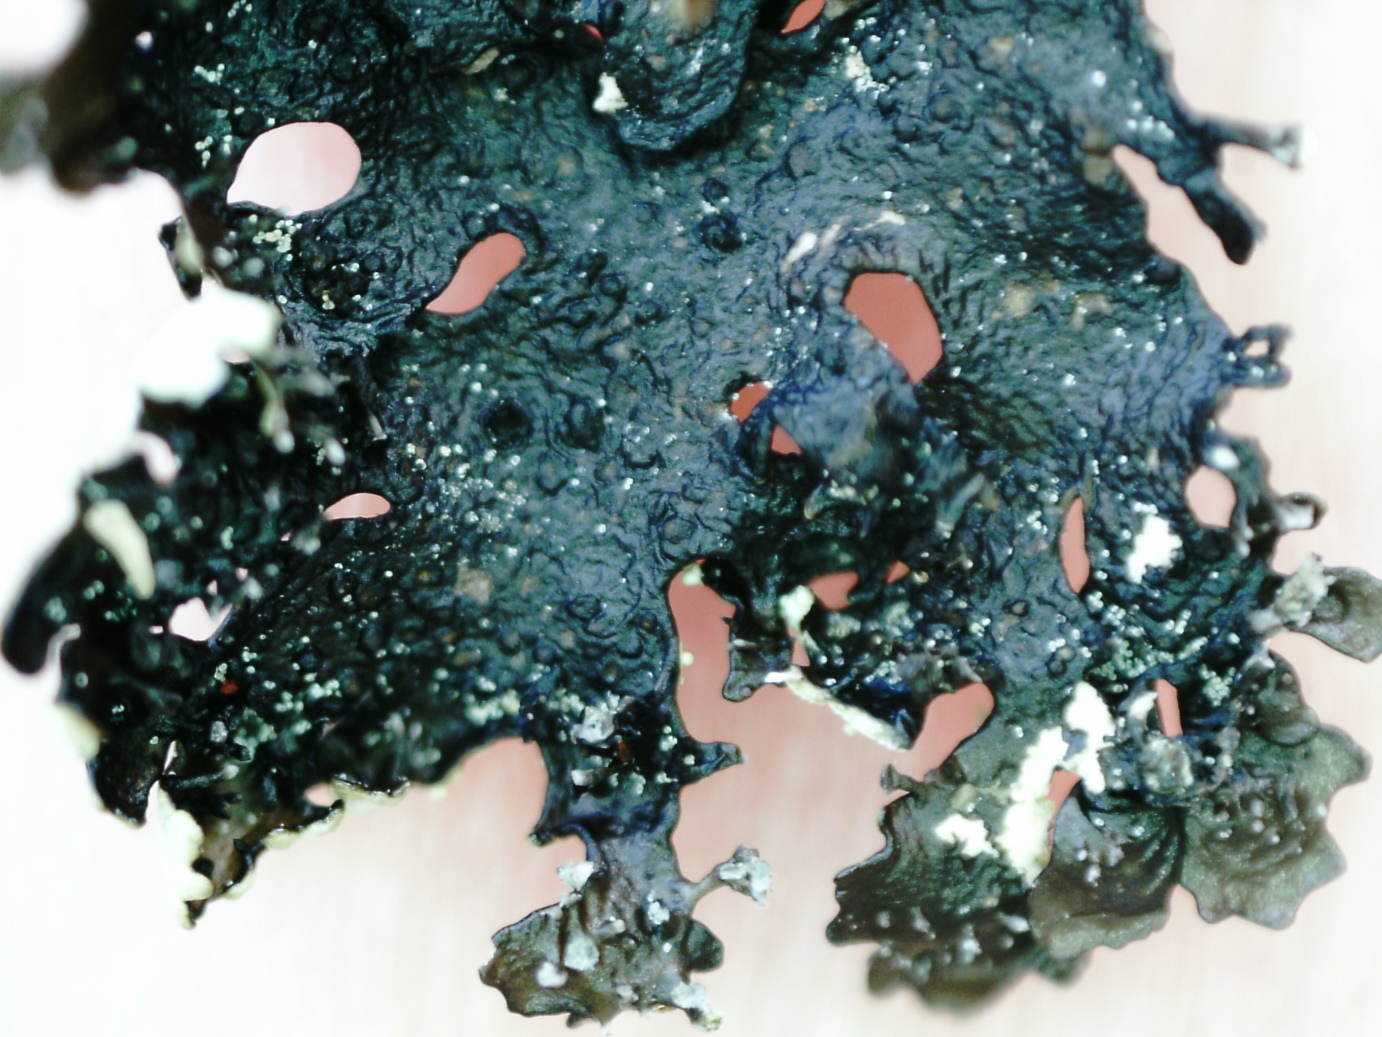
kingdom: Fungi
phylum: Ascomycota
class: Lecanoromycetes
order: Lecanorales
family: Parmeliaceae
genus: Xanthoparmelia
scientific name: Xanthoparmelia conspersa
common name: Peppered rock shield
